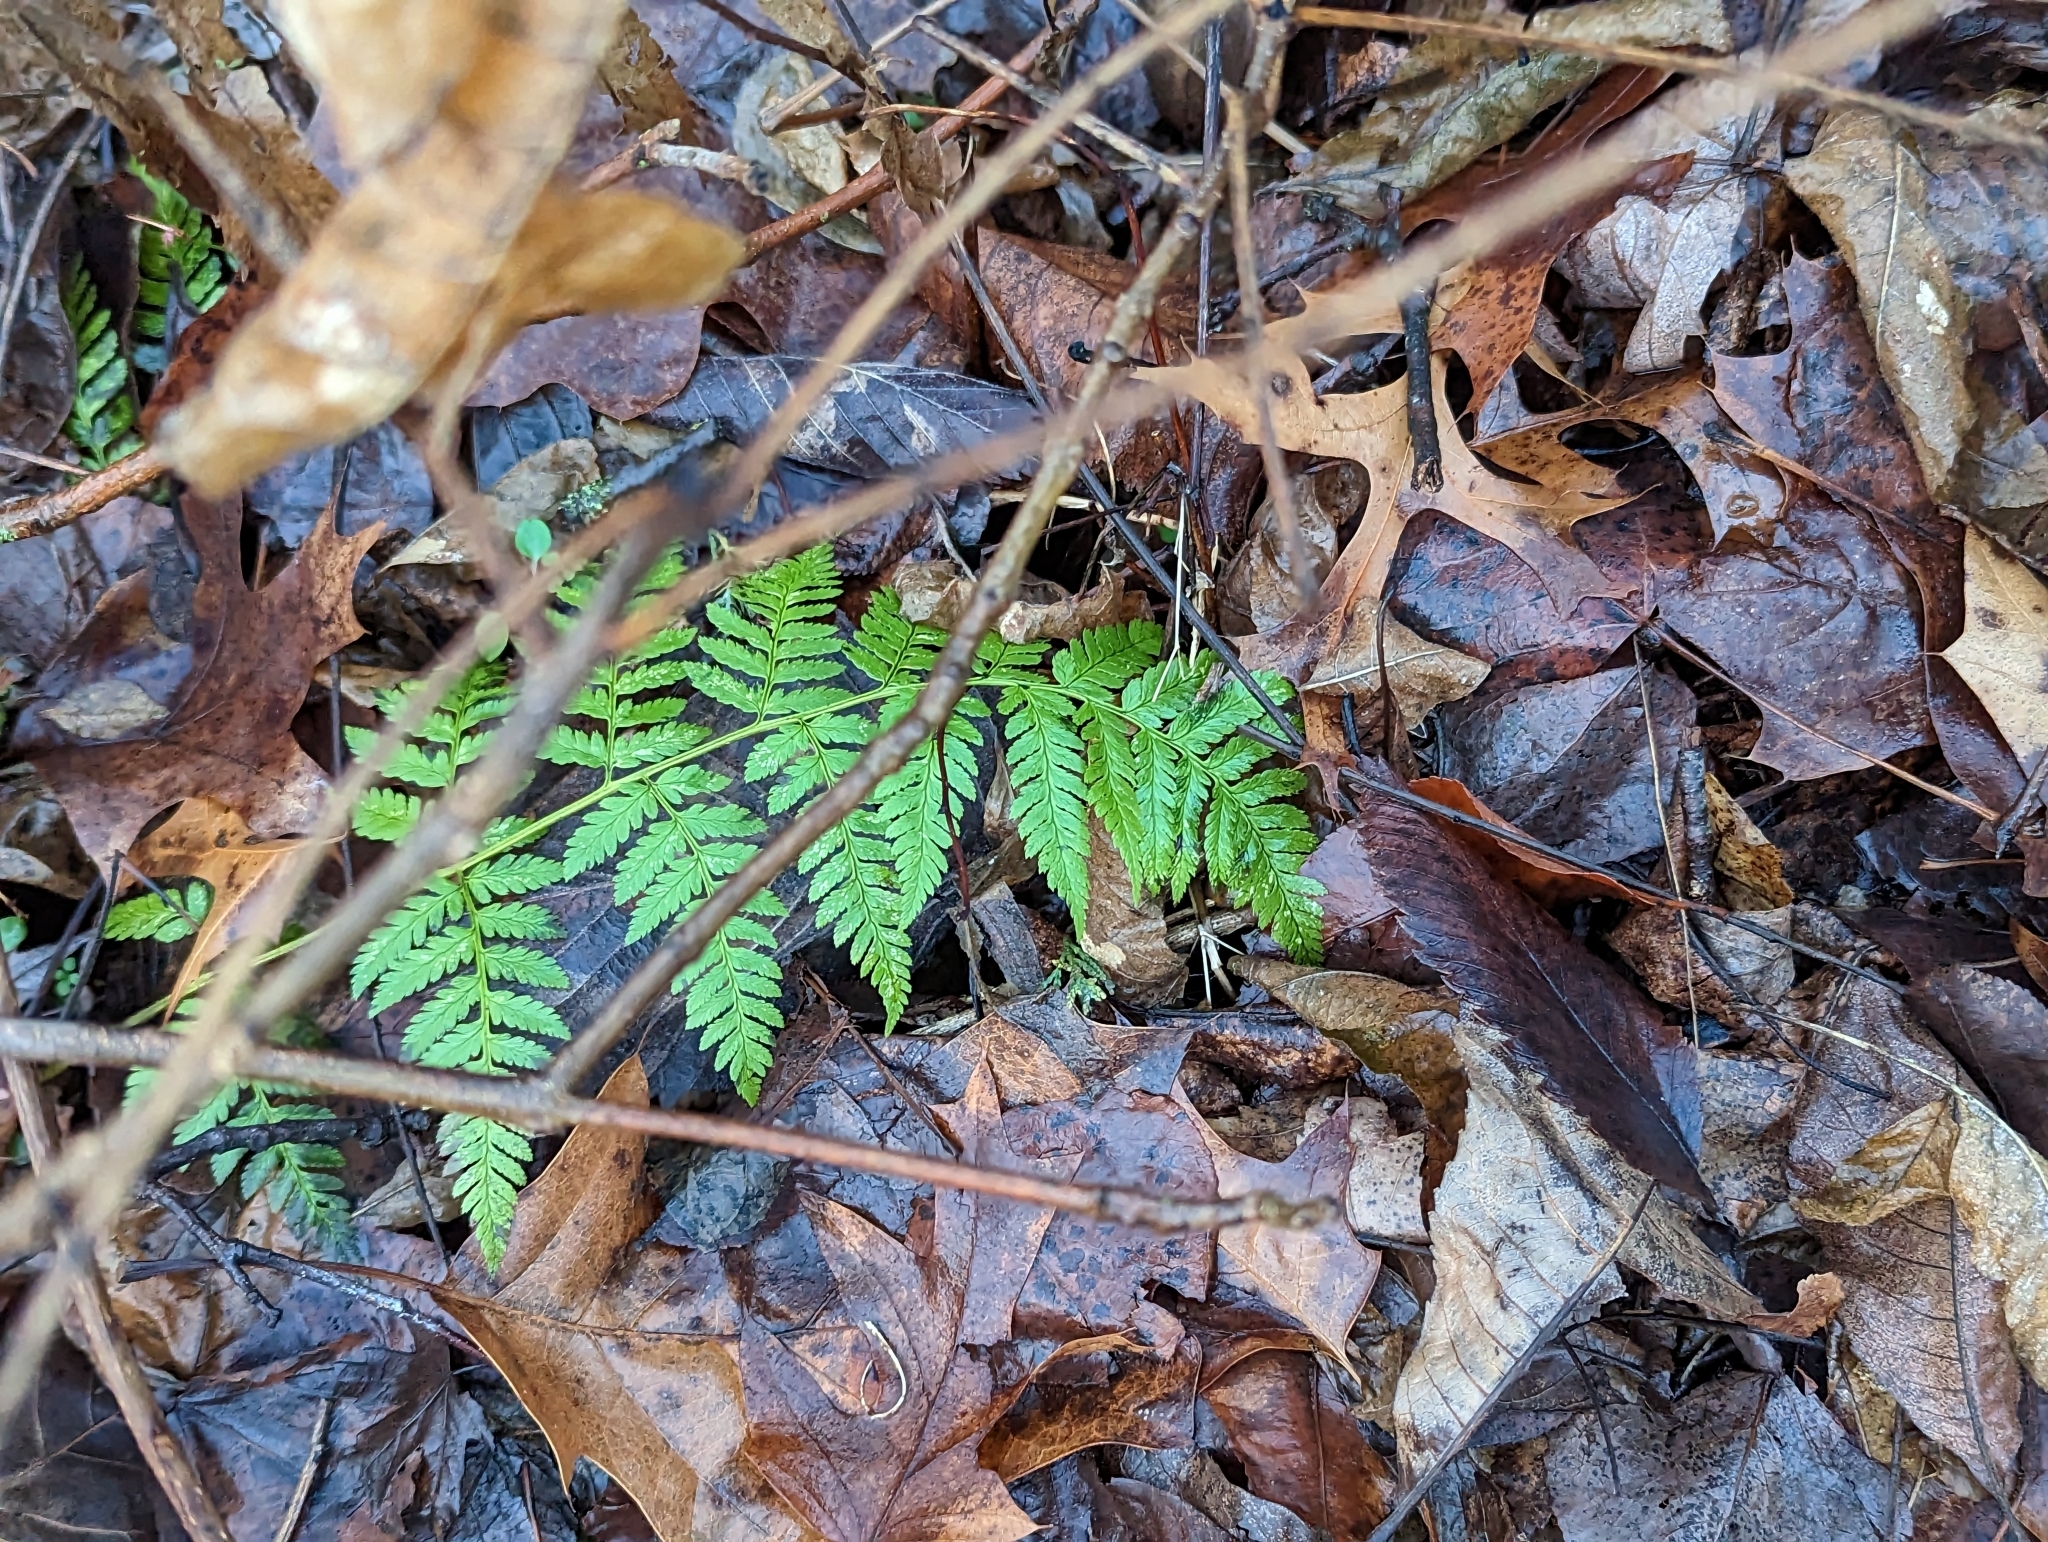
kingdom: Plantae
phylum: Tracheophyta
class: Polypodiopsida
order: Polypodiales
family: Dryopteridaceae
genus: Dryopteris
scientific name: Dryopteris carthusiana
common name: Narrow buckler-fern
